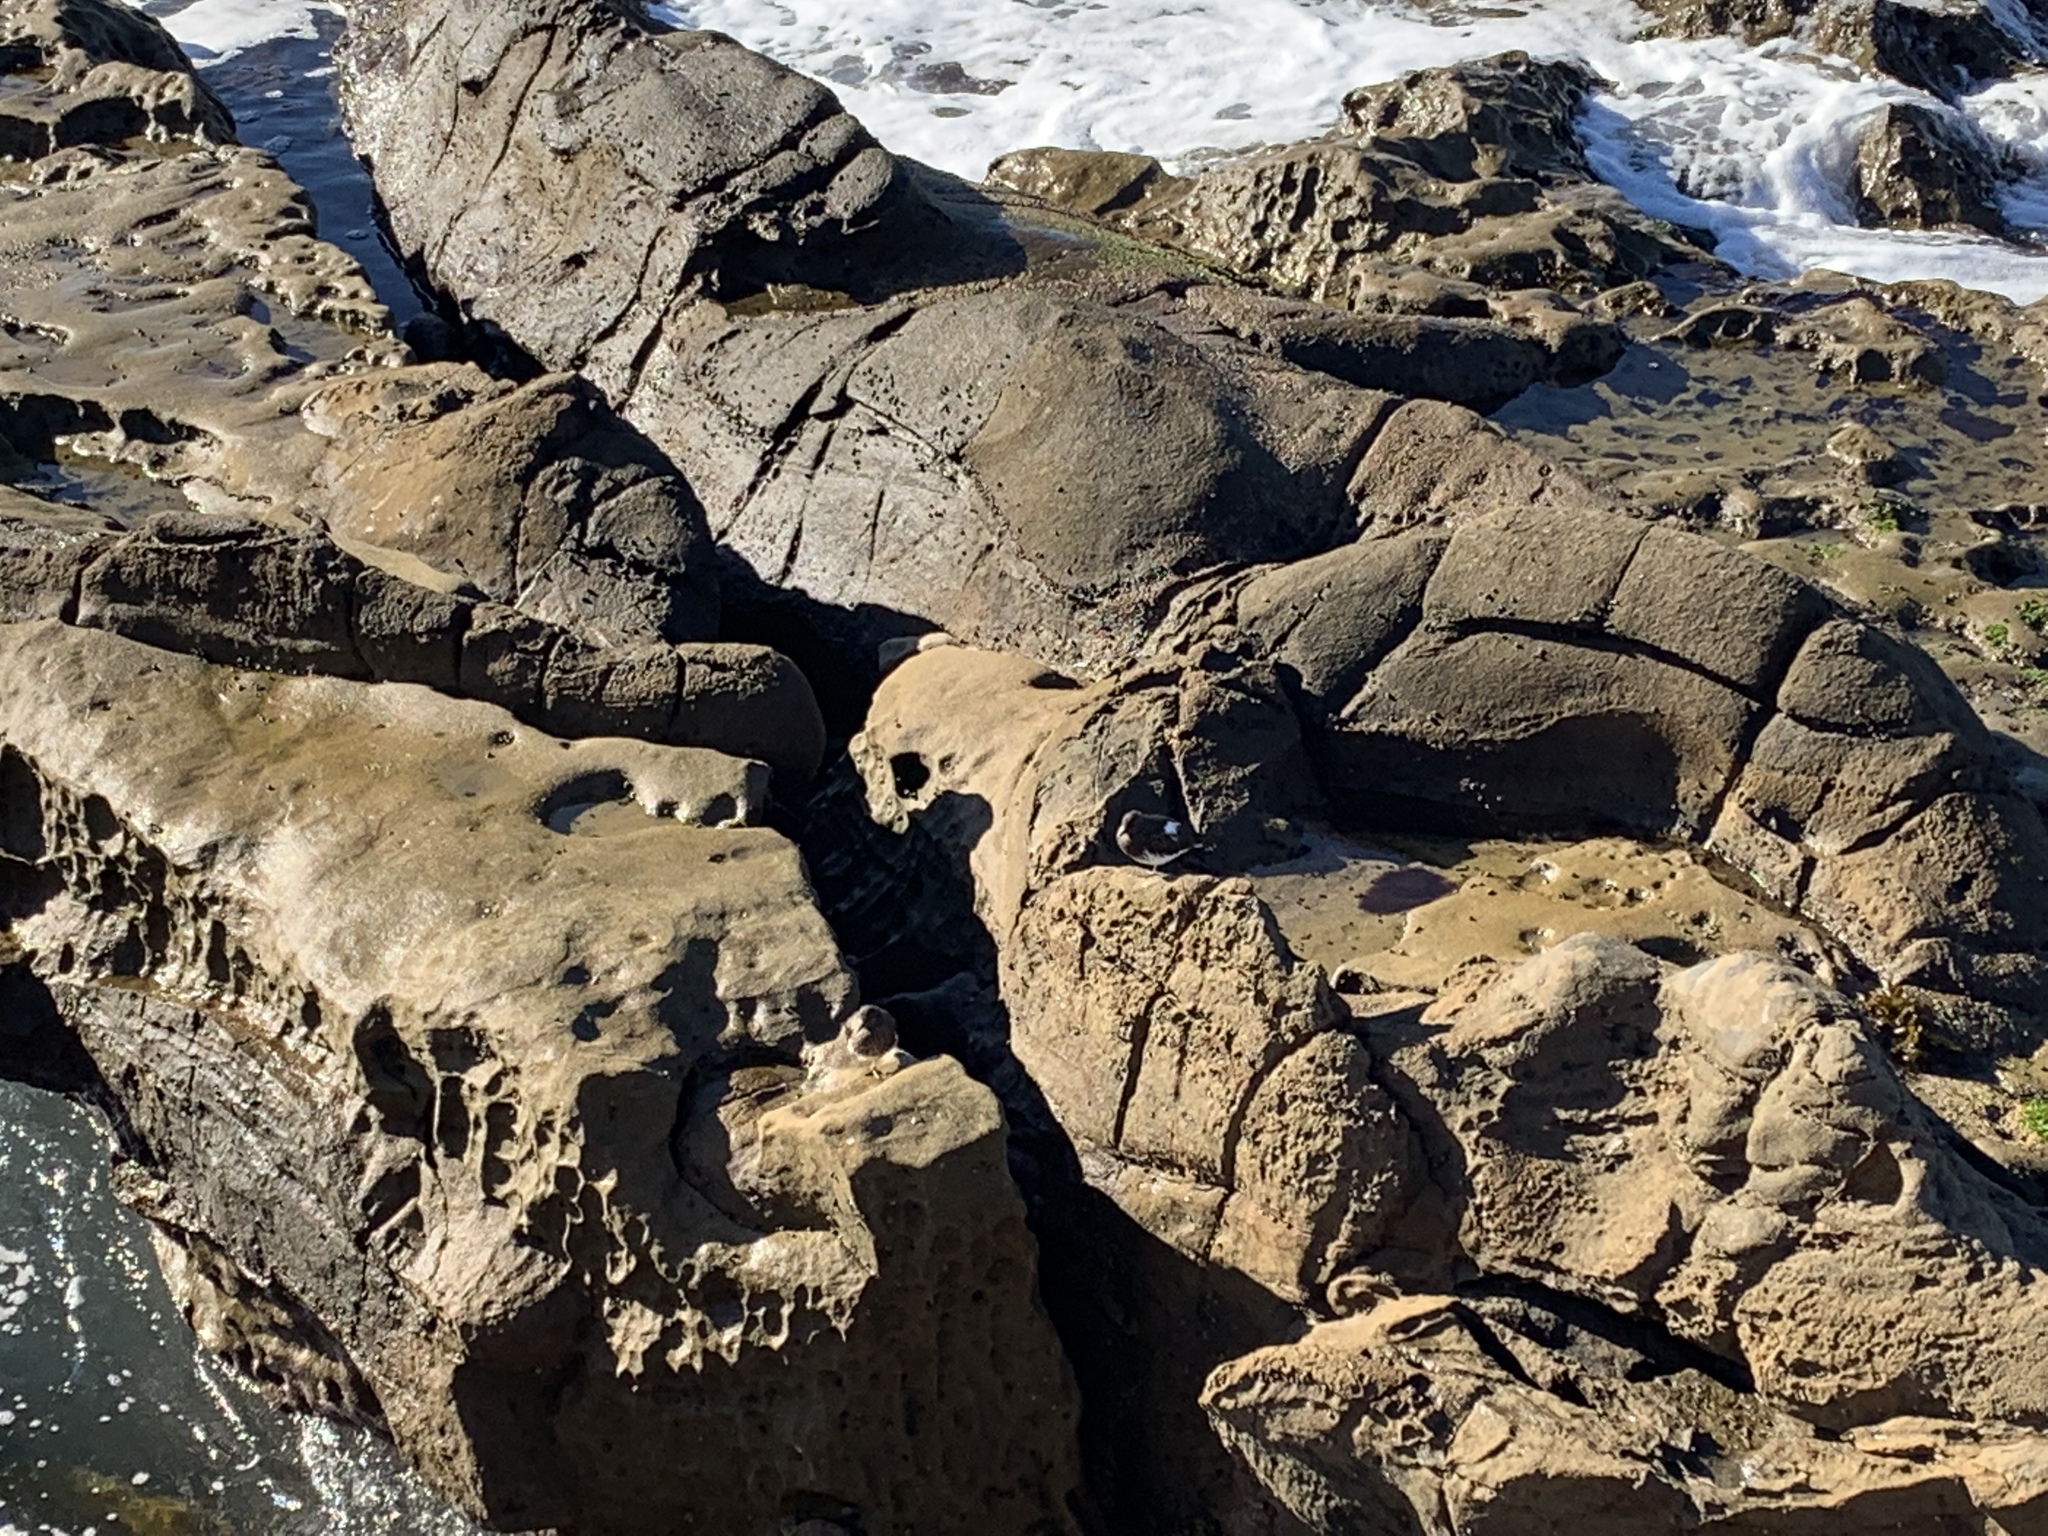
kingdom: Animalia
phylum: Chordata
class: Aves
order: Charadriiformes
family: Scolopacidae
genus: Arenaria
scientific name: Arenaria melanocephala
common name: Black turnstone
